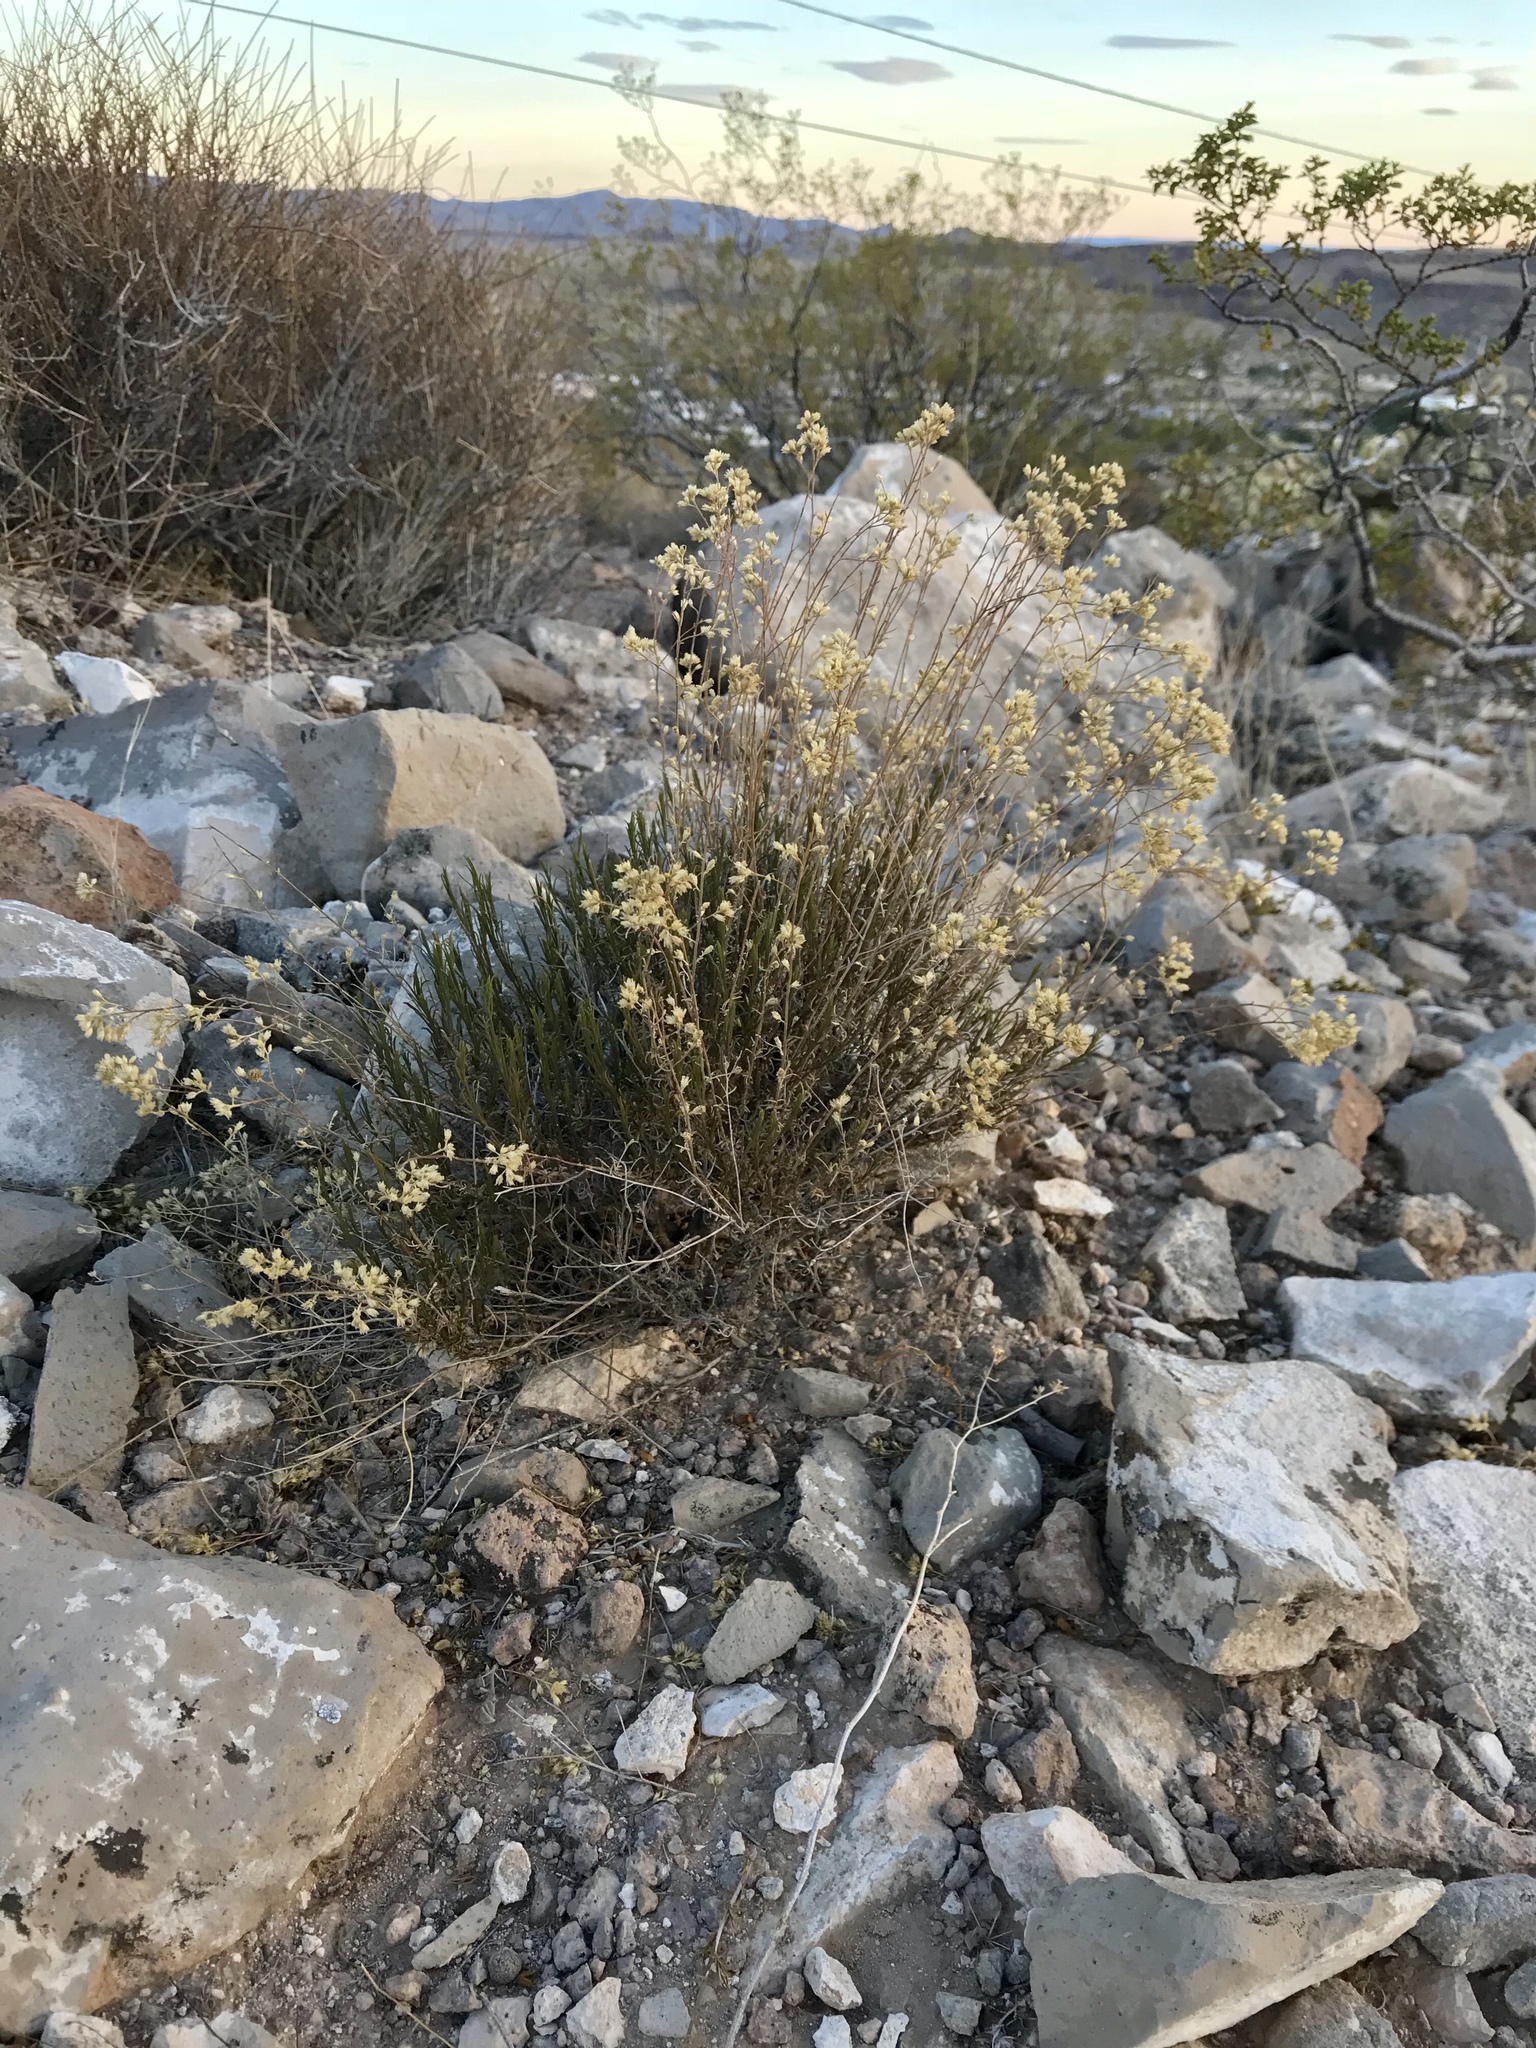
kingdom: Plantae
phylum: Tracheophyta
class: Magnoliopsida
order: Asterales
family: Asteraceae
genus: Gutierrezia
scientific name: Gutierrezia sarothrae
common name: Broom snakeweed
